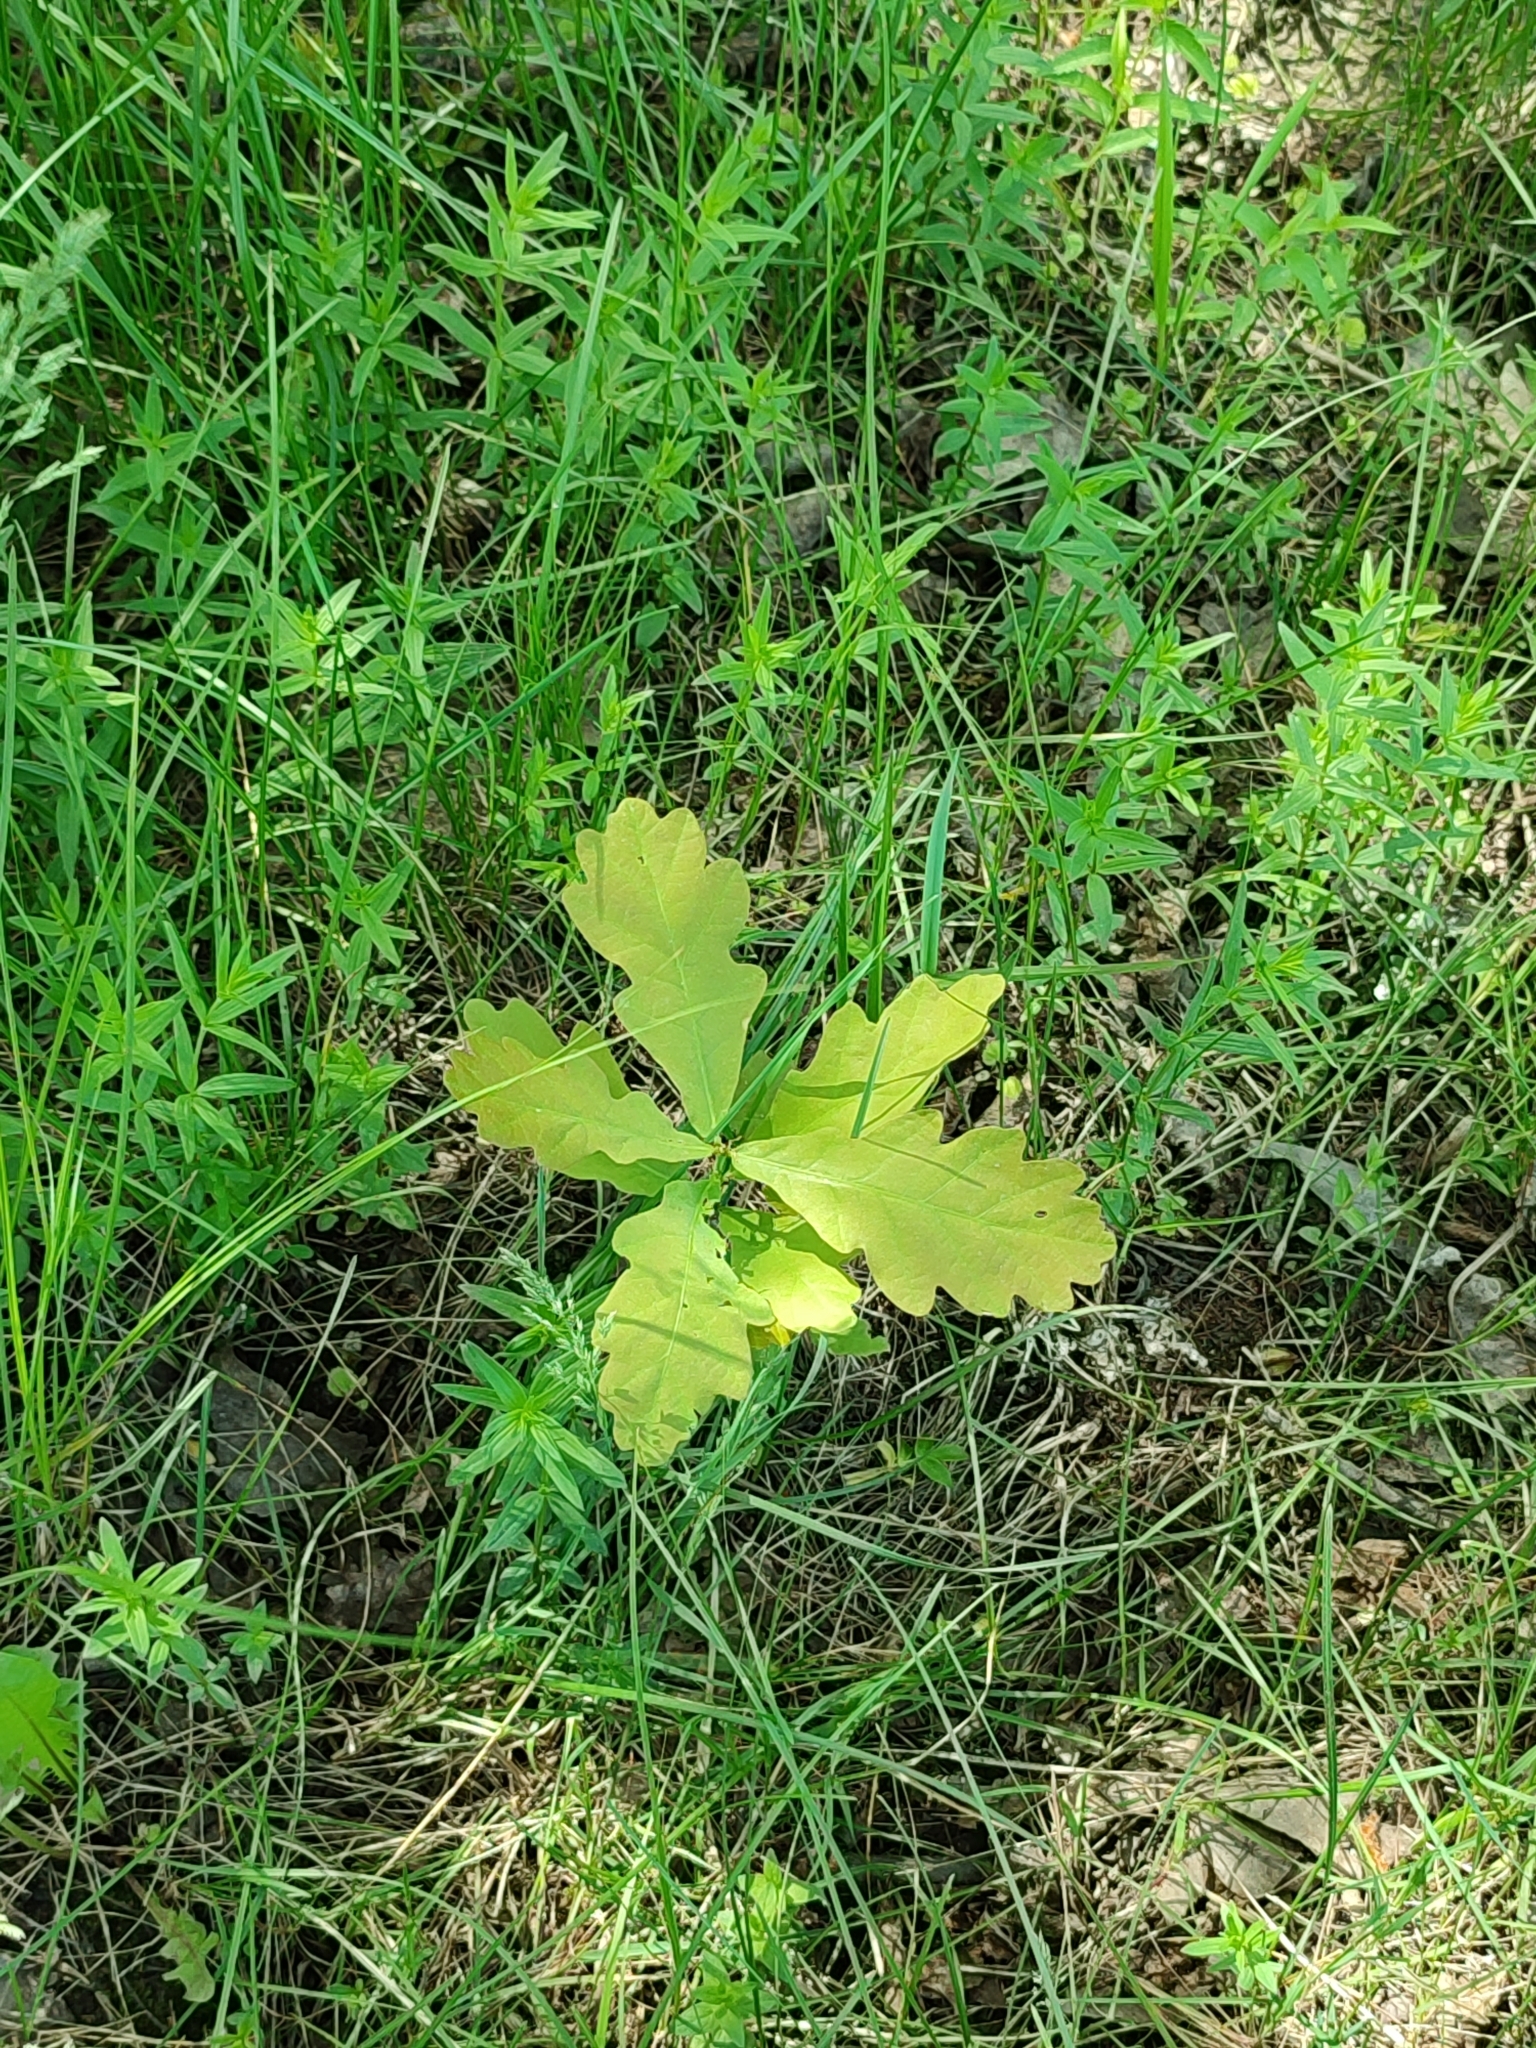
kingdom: Plantae
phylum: Tracheophyta
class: Magnoliopsida
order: Fagales
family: Fagaceae
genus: Quercus
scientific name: Quercus robur
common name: Pedunculate oak
